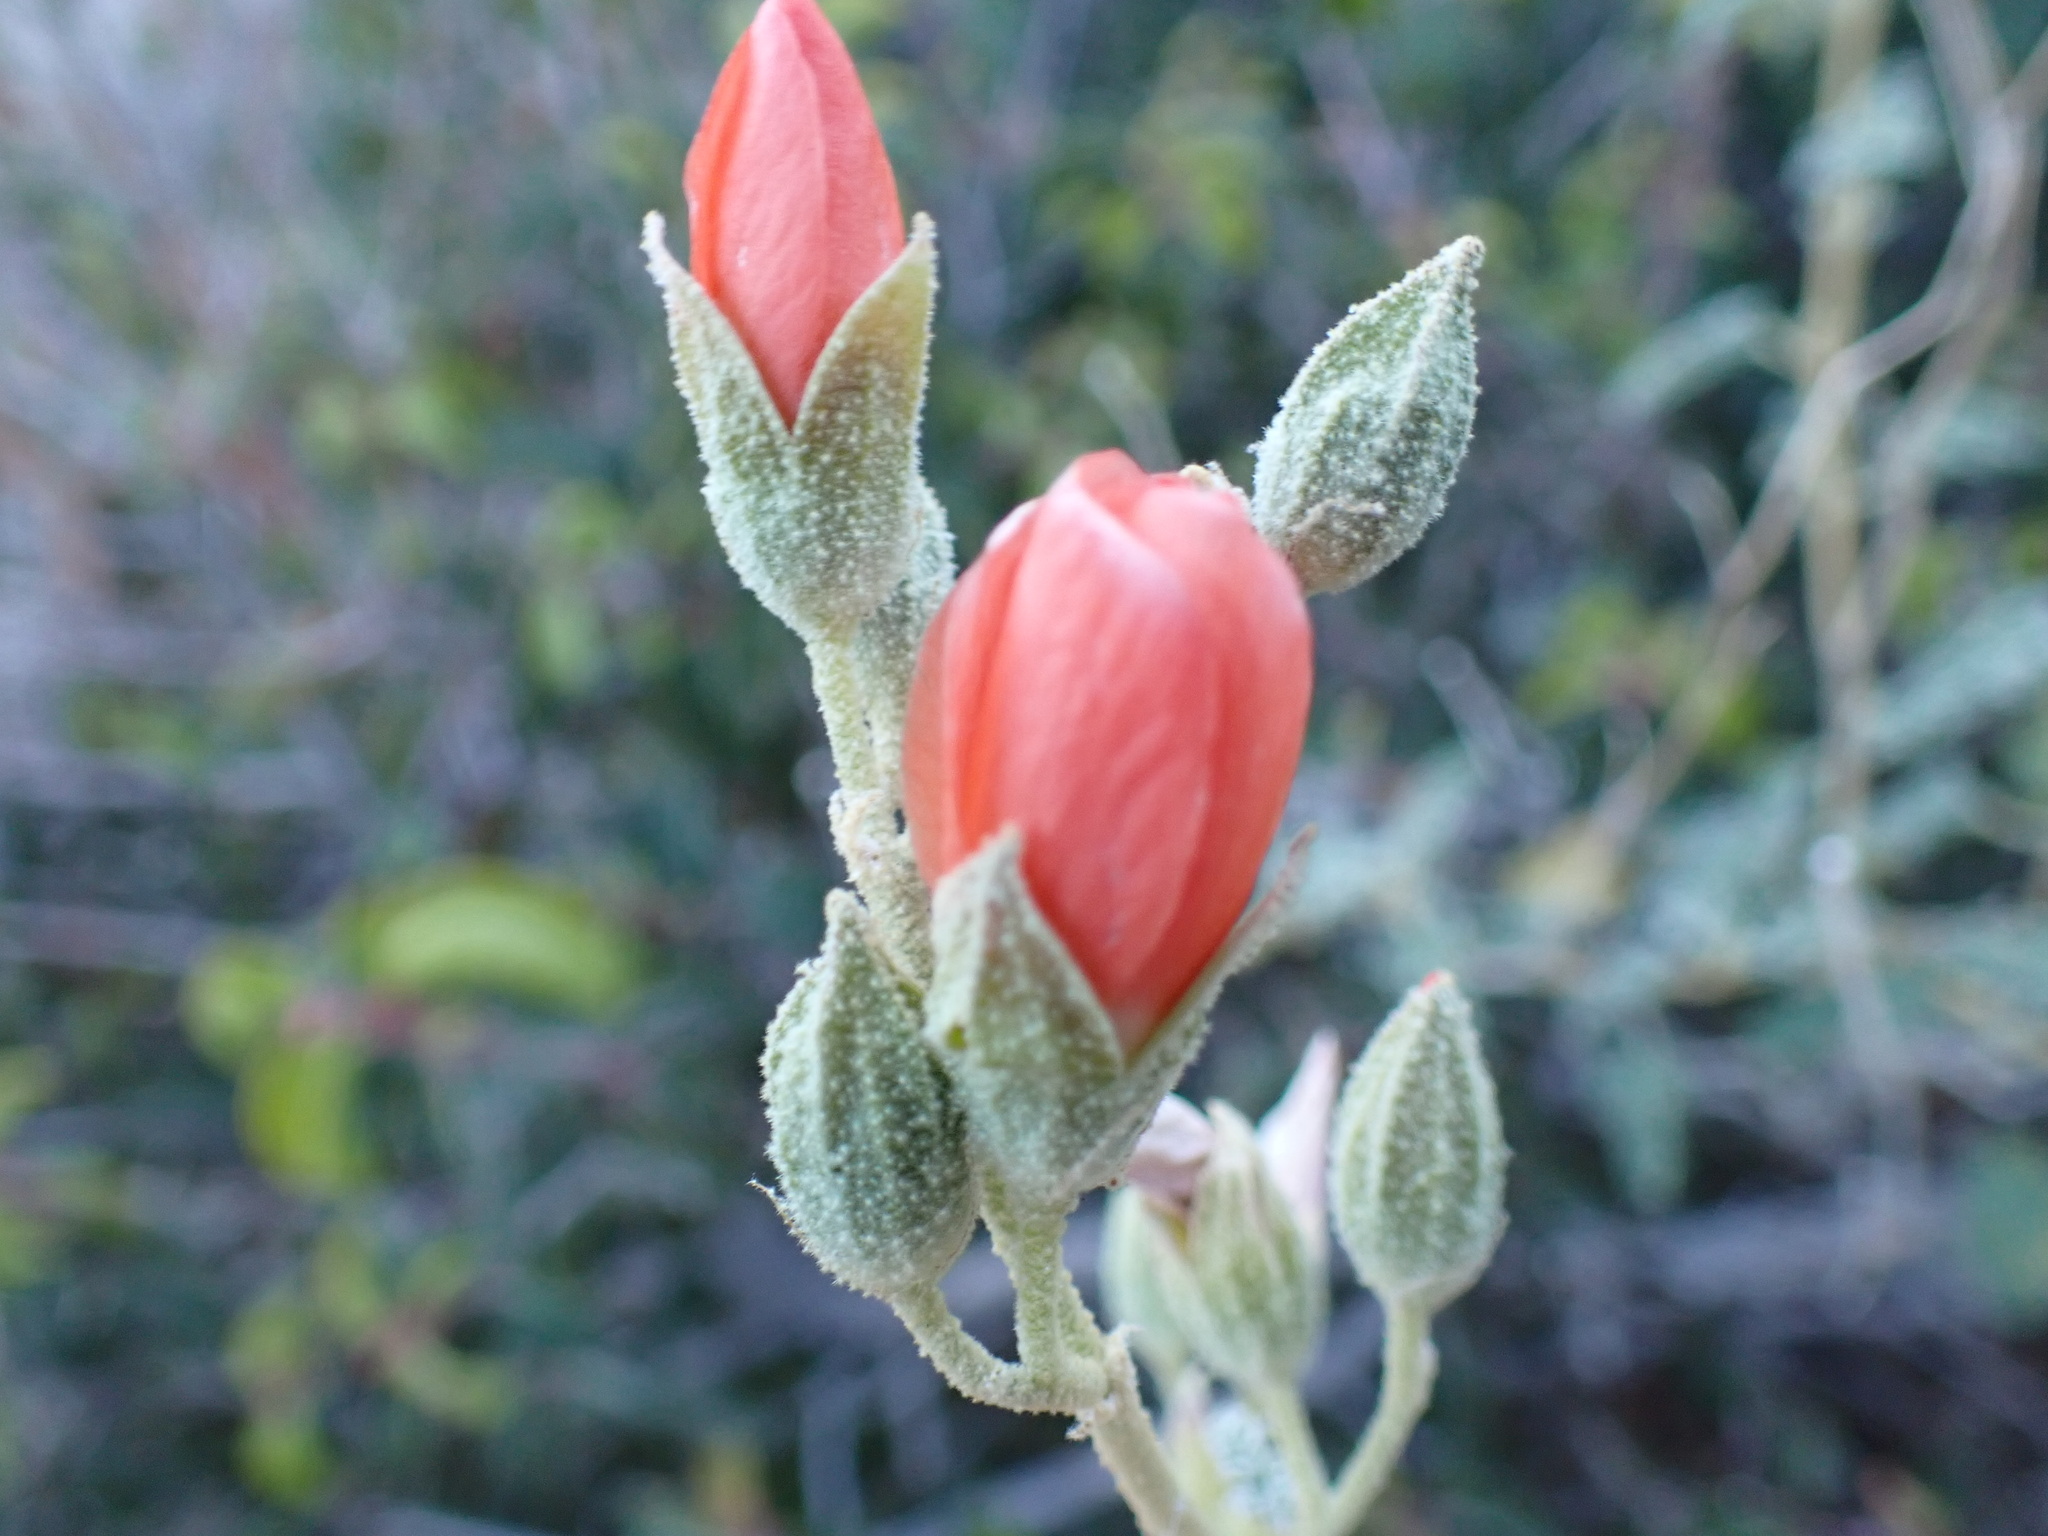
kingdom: Plantae
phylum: Tracheophyta
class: Magnoliopsida
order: Malvales
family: Malvaceae
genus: Sphaeralcea
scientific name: Sphaeralcea ambigua
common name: Apricot globe-mallow
